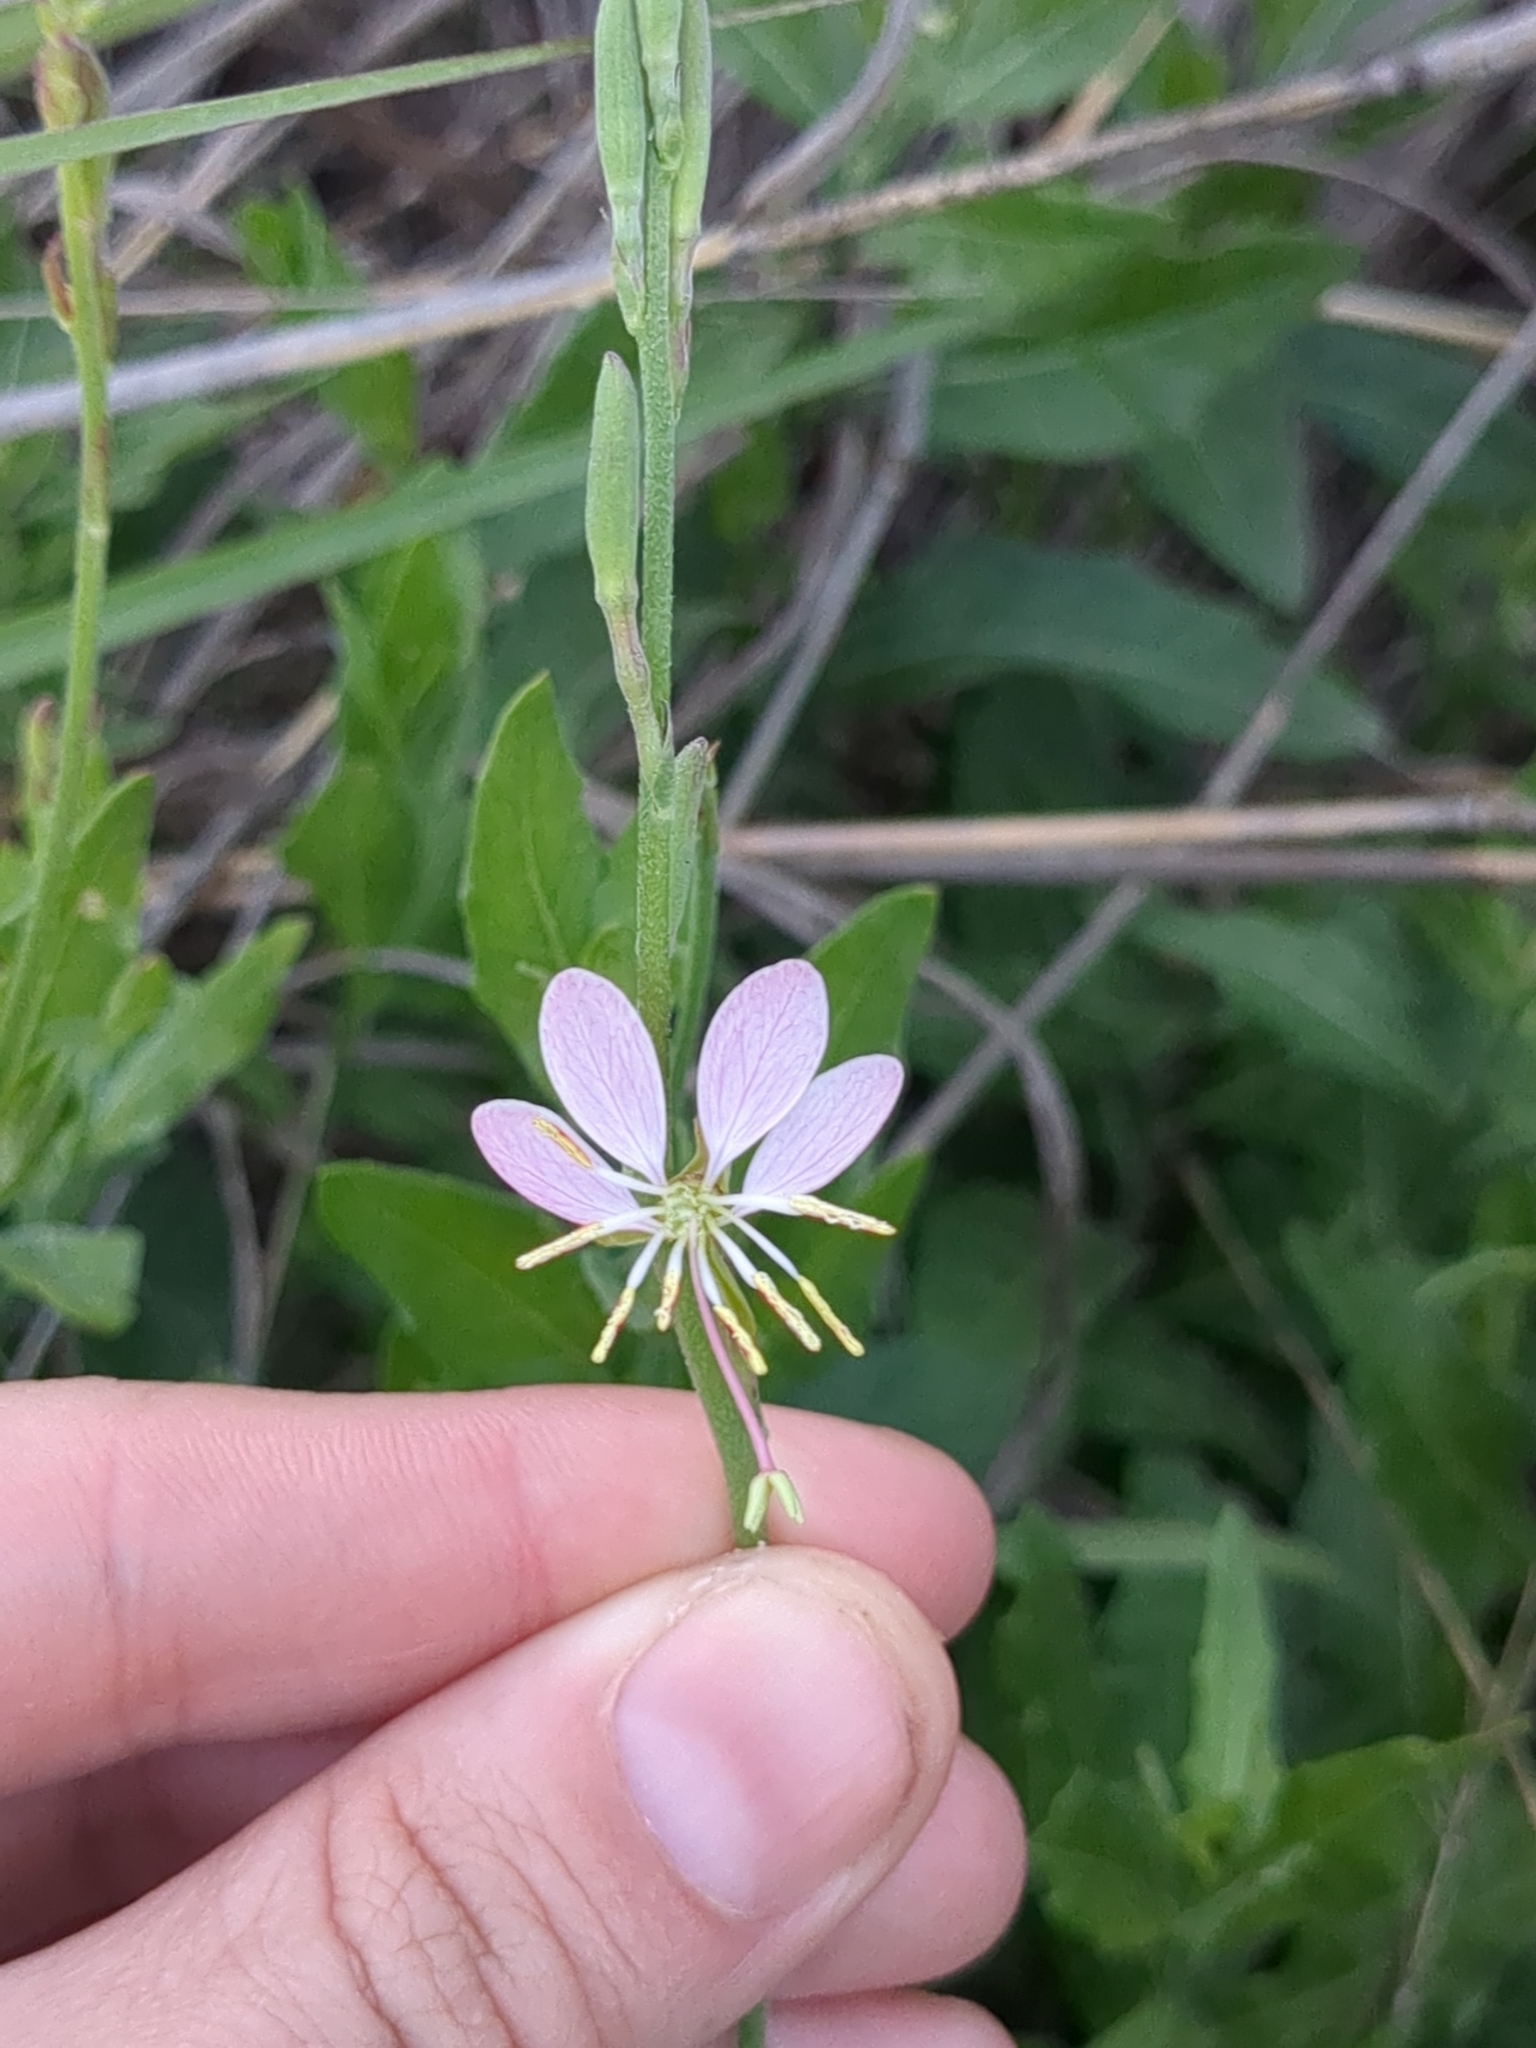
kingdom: Plantae
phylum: Tracheophyta
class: Magnoliopsida
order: Myrtales
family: Onagraceae
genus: Oenothera
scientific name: Oenothera suffulta
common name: Kisses
